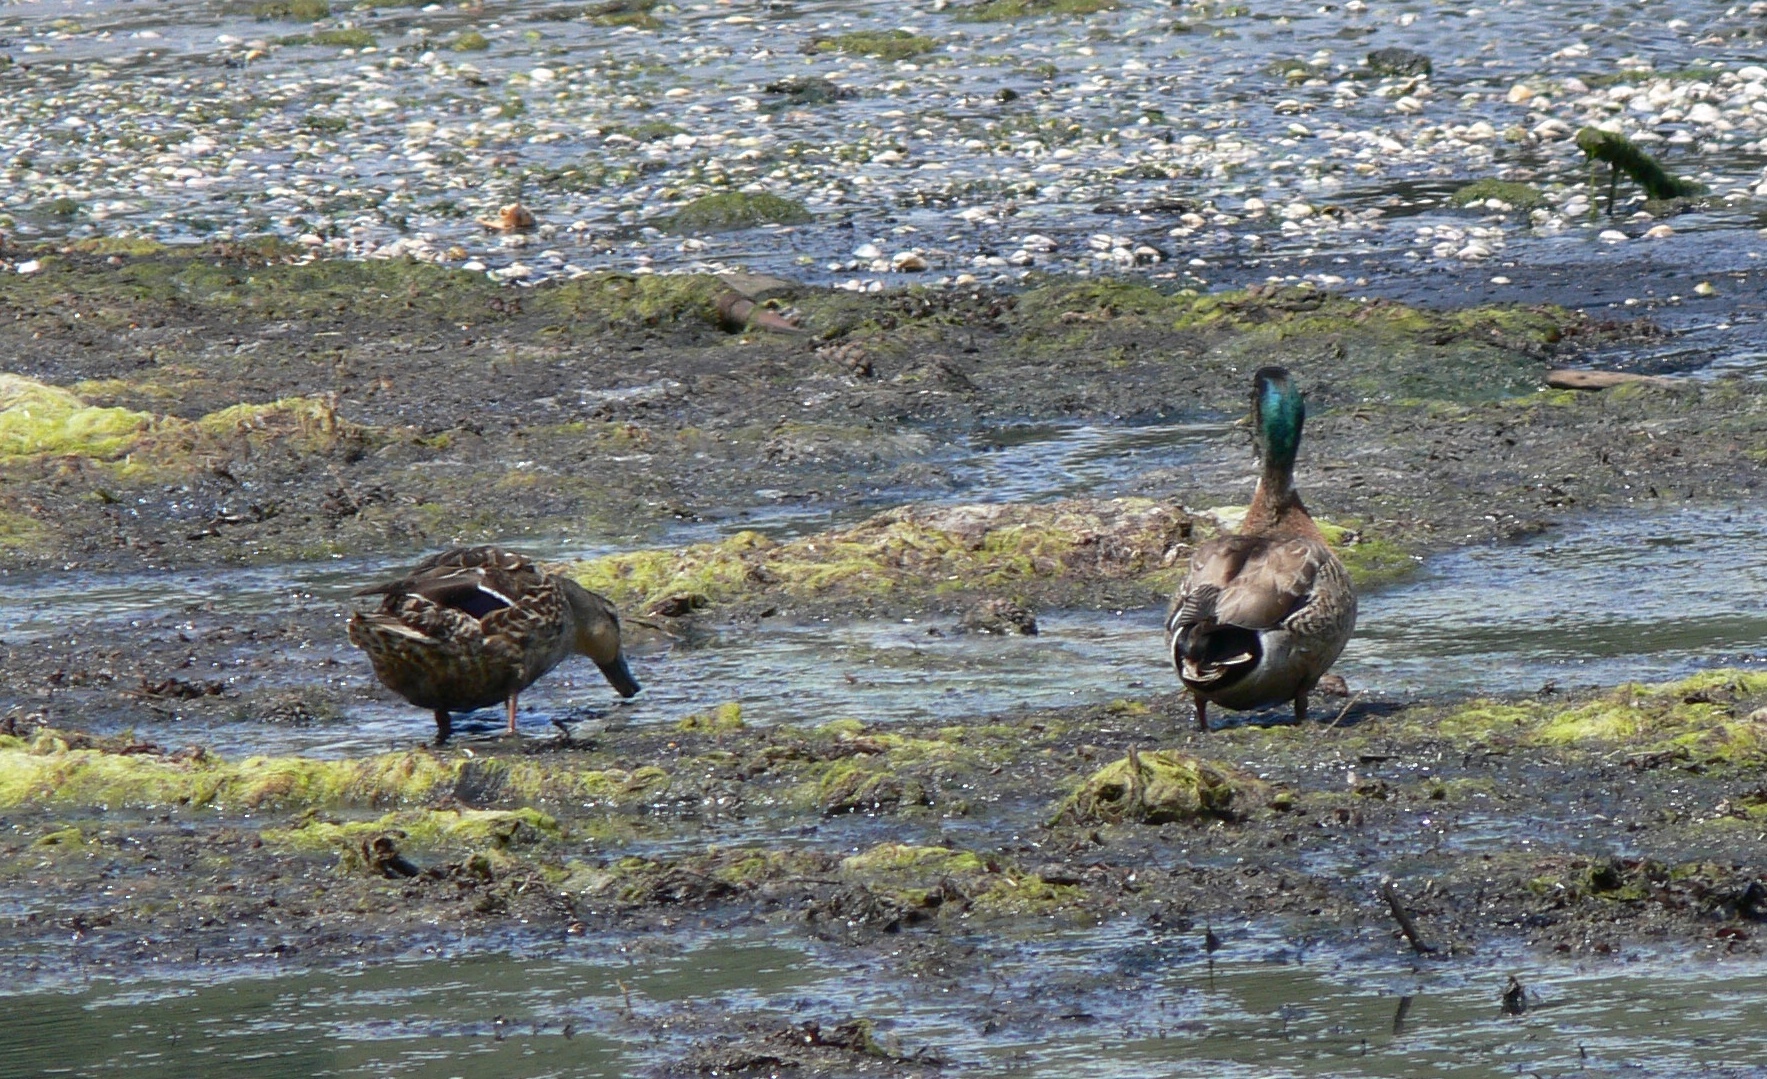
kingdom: Animalia
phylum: Chordata
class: Aves
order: Anseriformes
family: Anatidae
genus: Anas
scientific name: Anas
